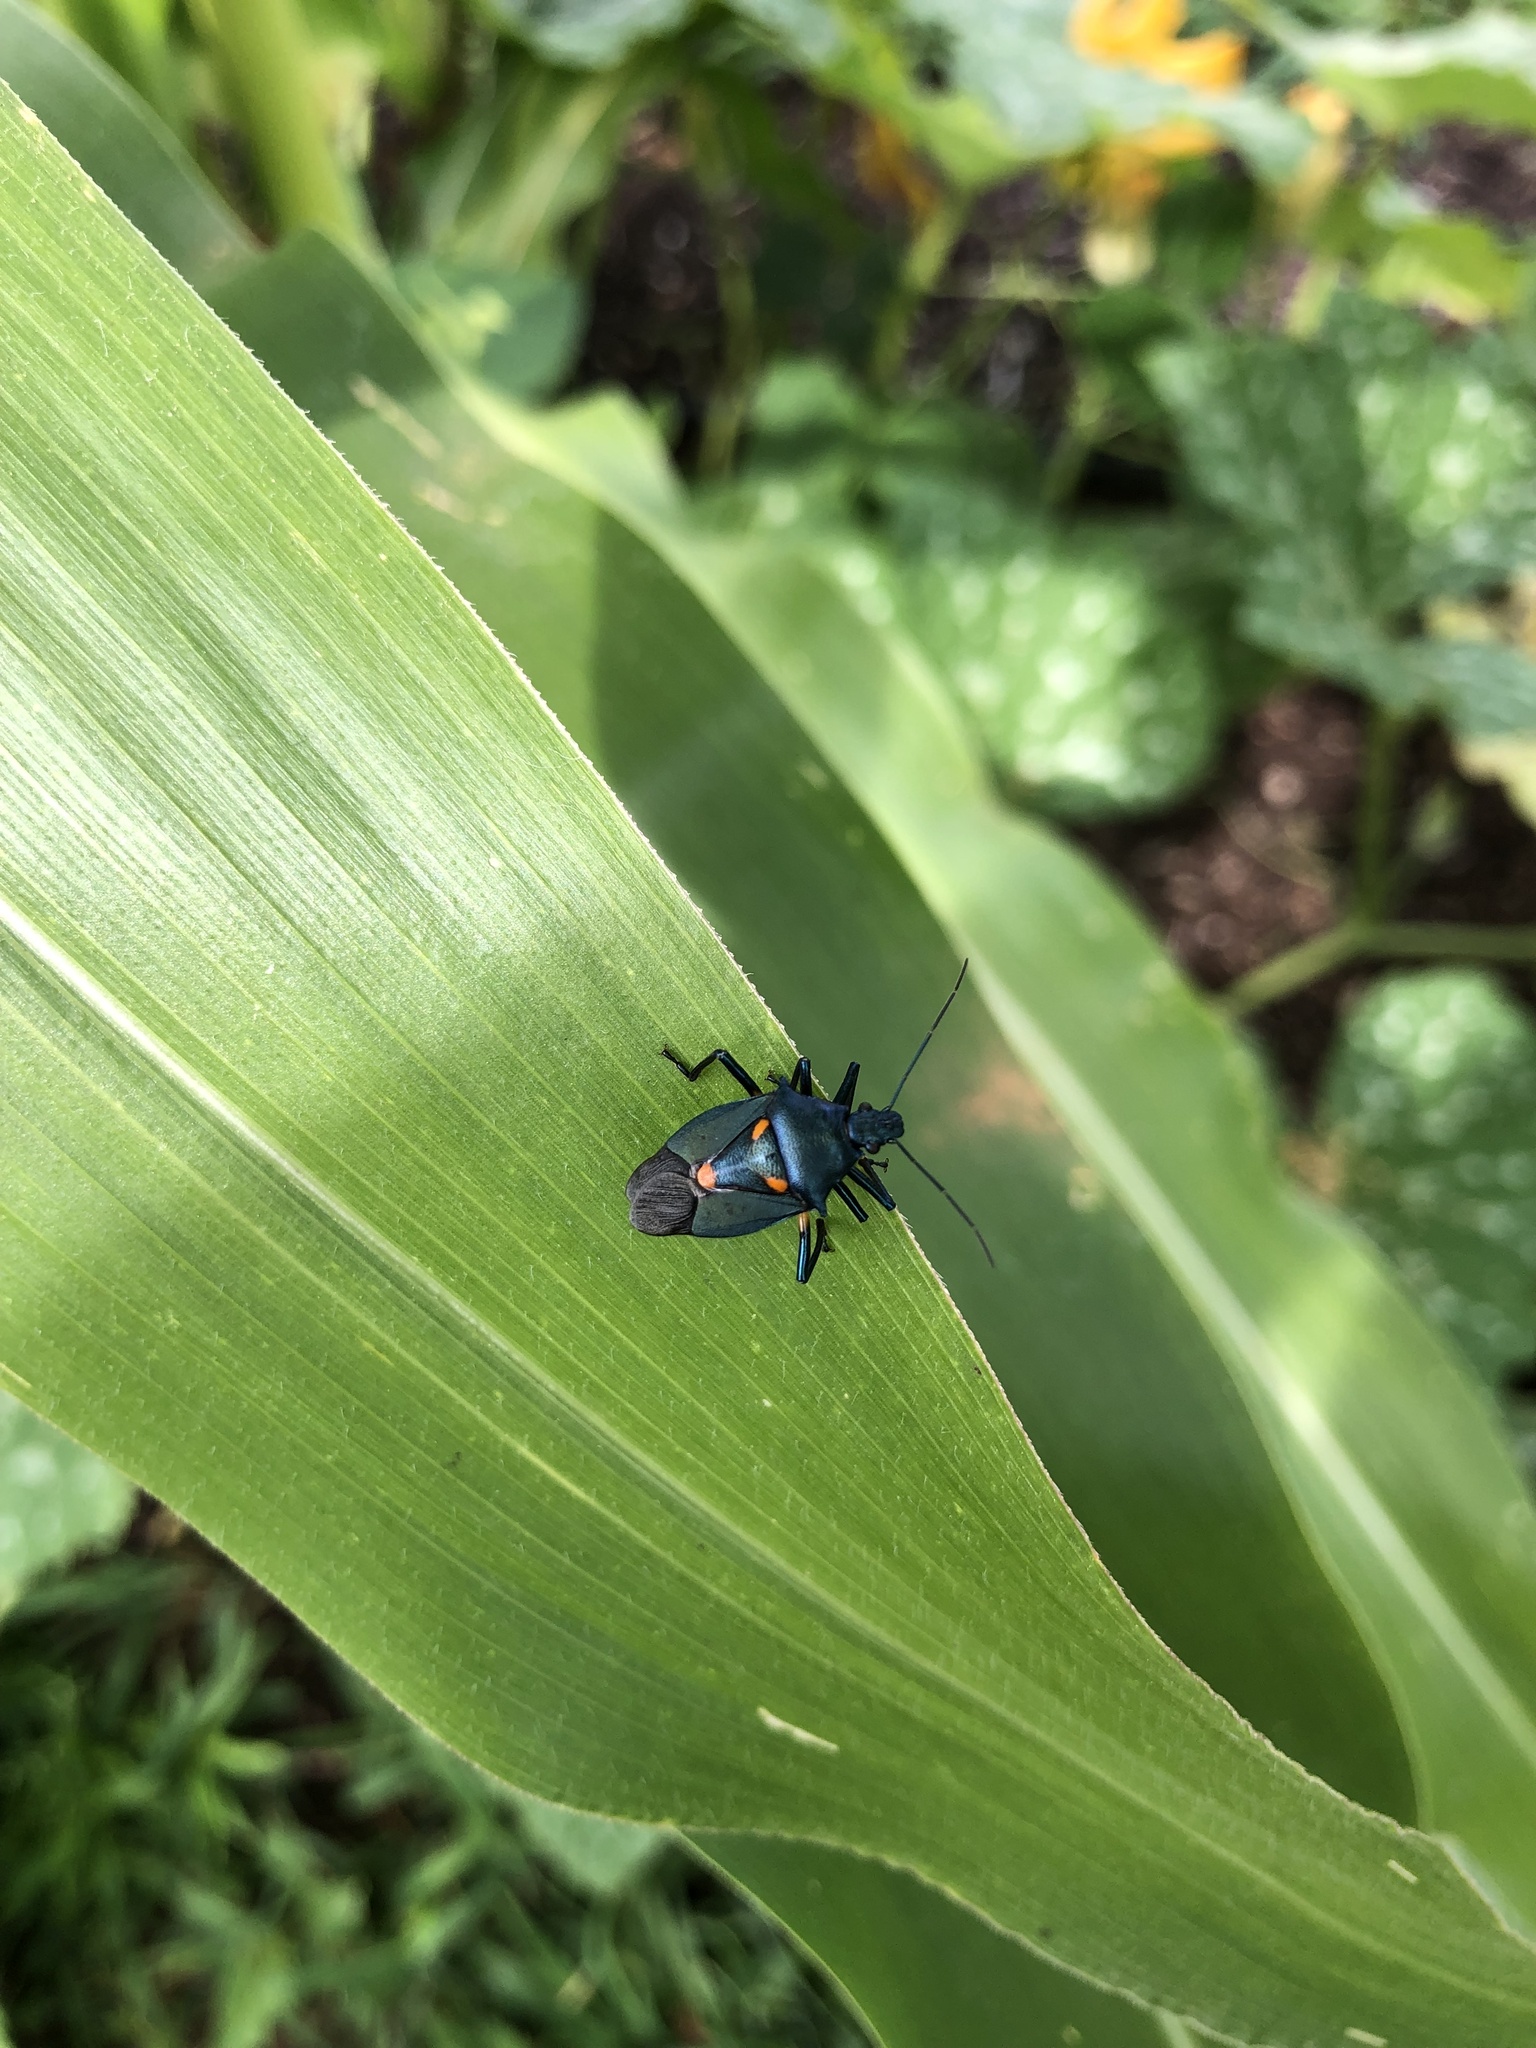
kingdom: Animalia
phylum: Arthropoda
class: Insecta
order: Hemiptera
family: Pentatomidae
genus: Euthyrhynchus
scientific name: Euthyrhynchus floridanus
